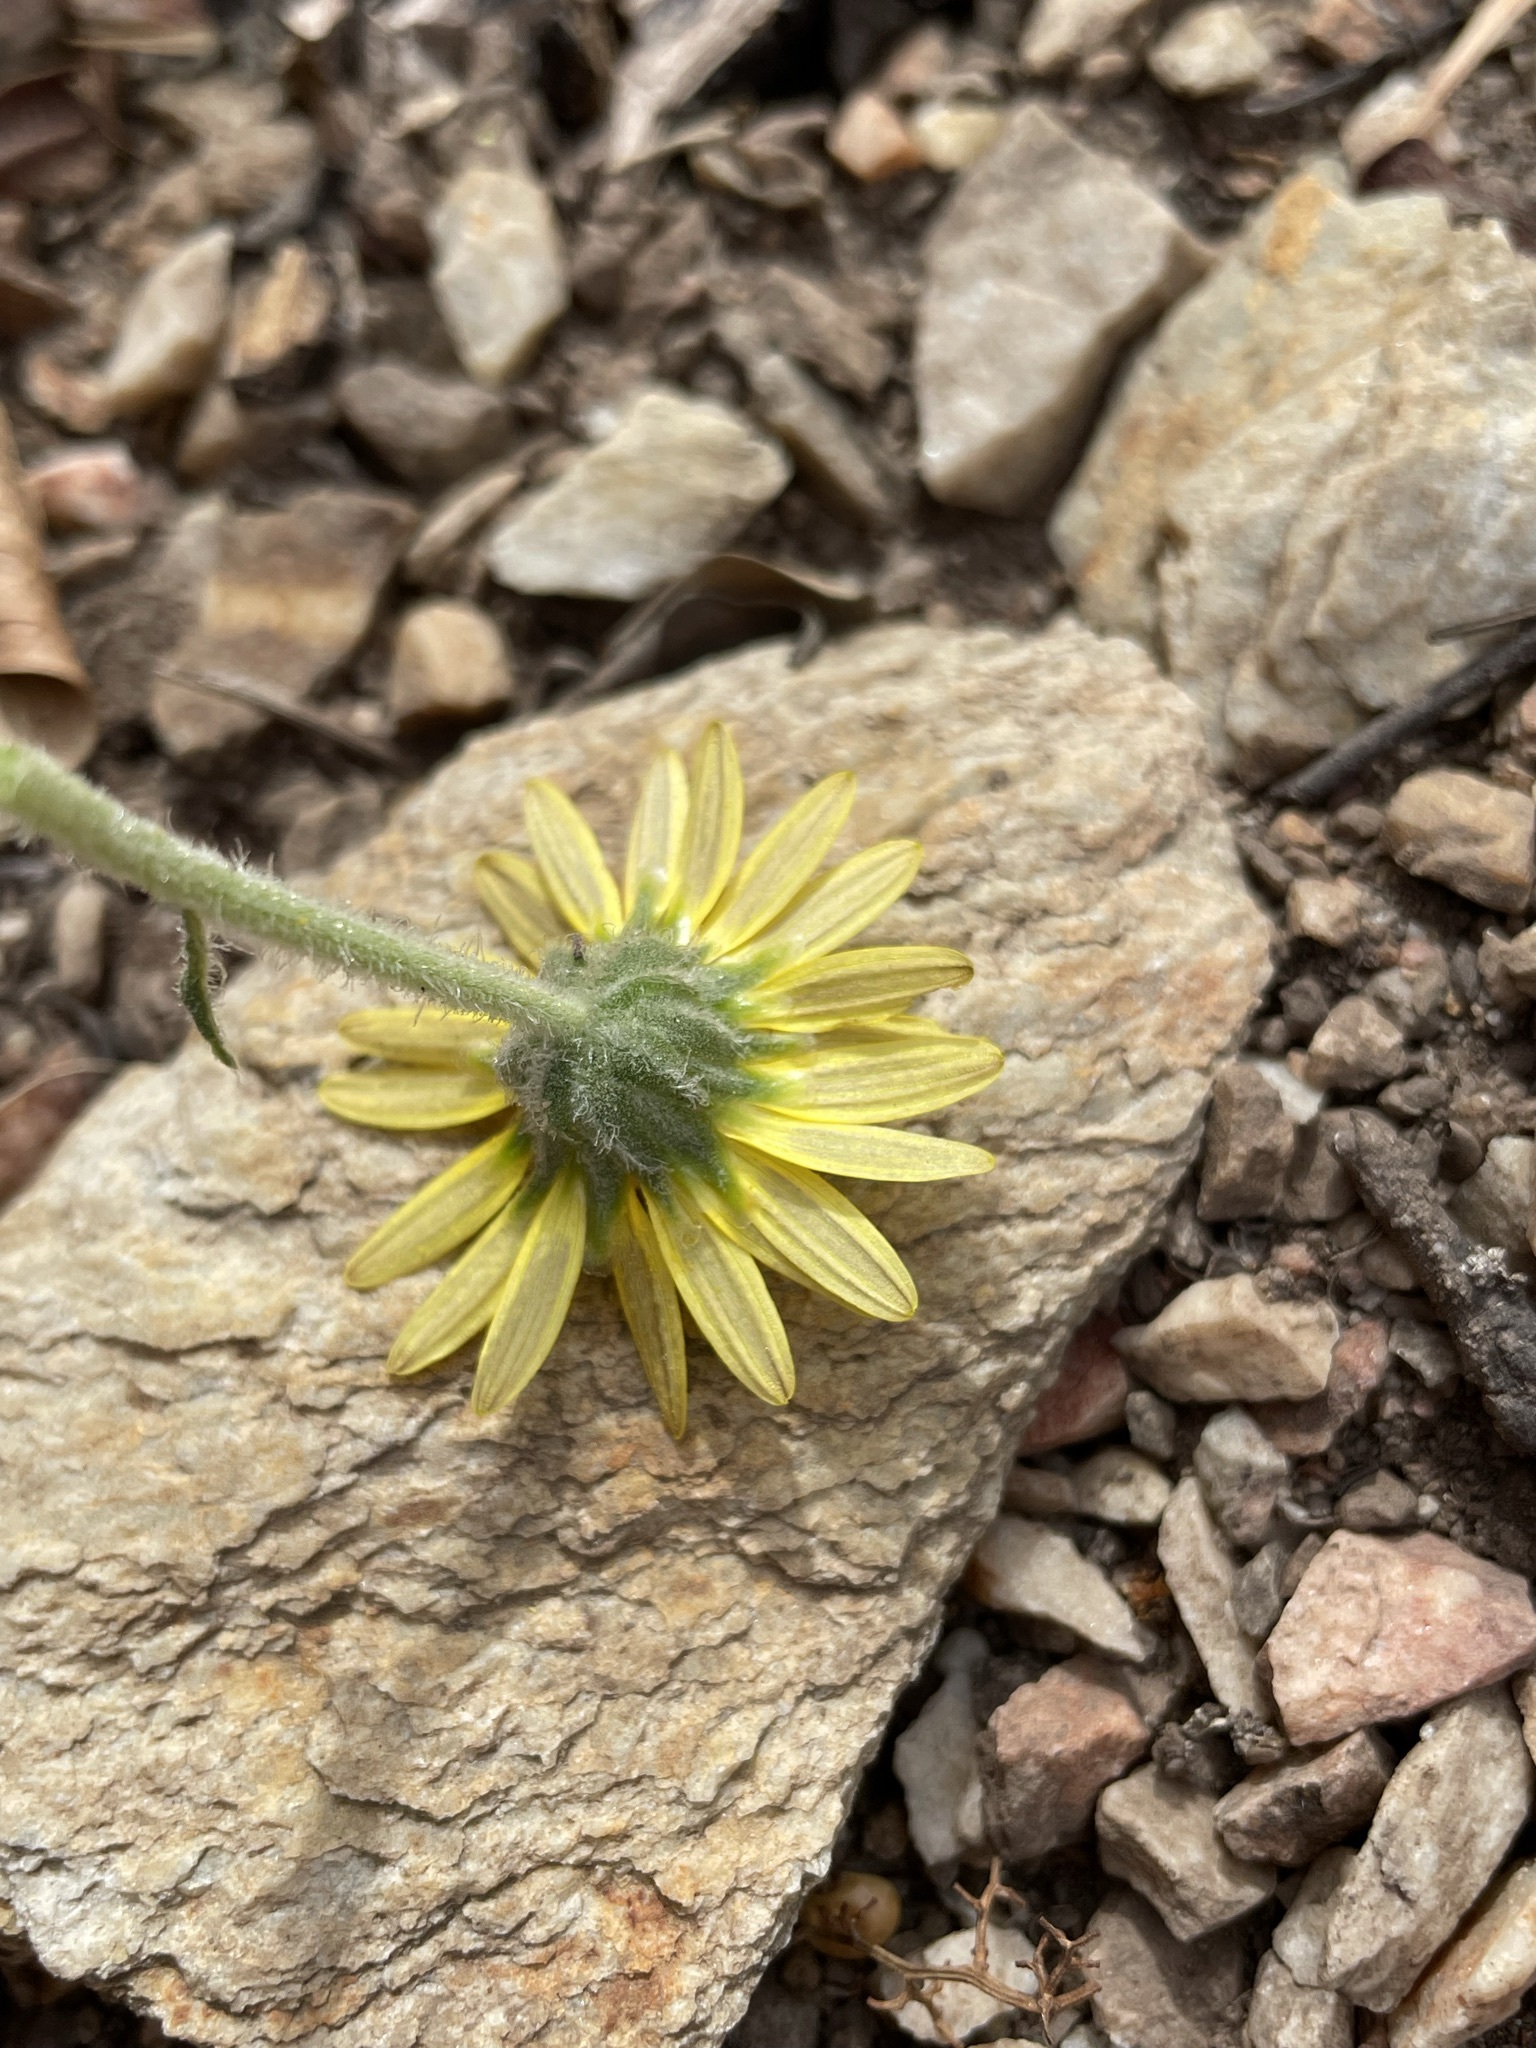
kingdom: Plantae
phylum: Tracheophyta
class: Magnoliopsida
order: Asterales
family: Asteraceae
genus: Arctotis
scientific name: Arctotis arctotoides
